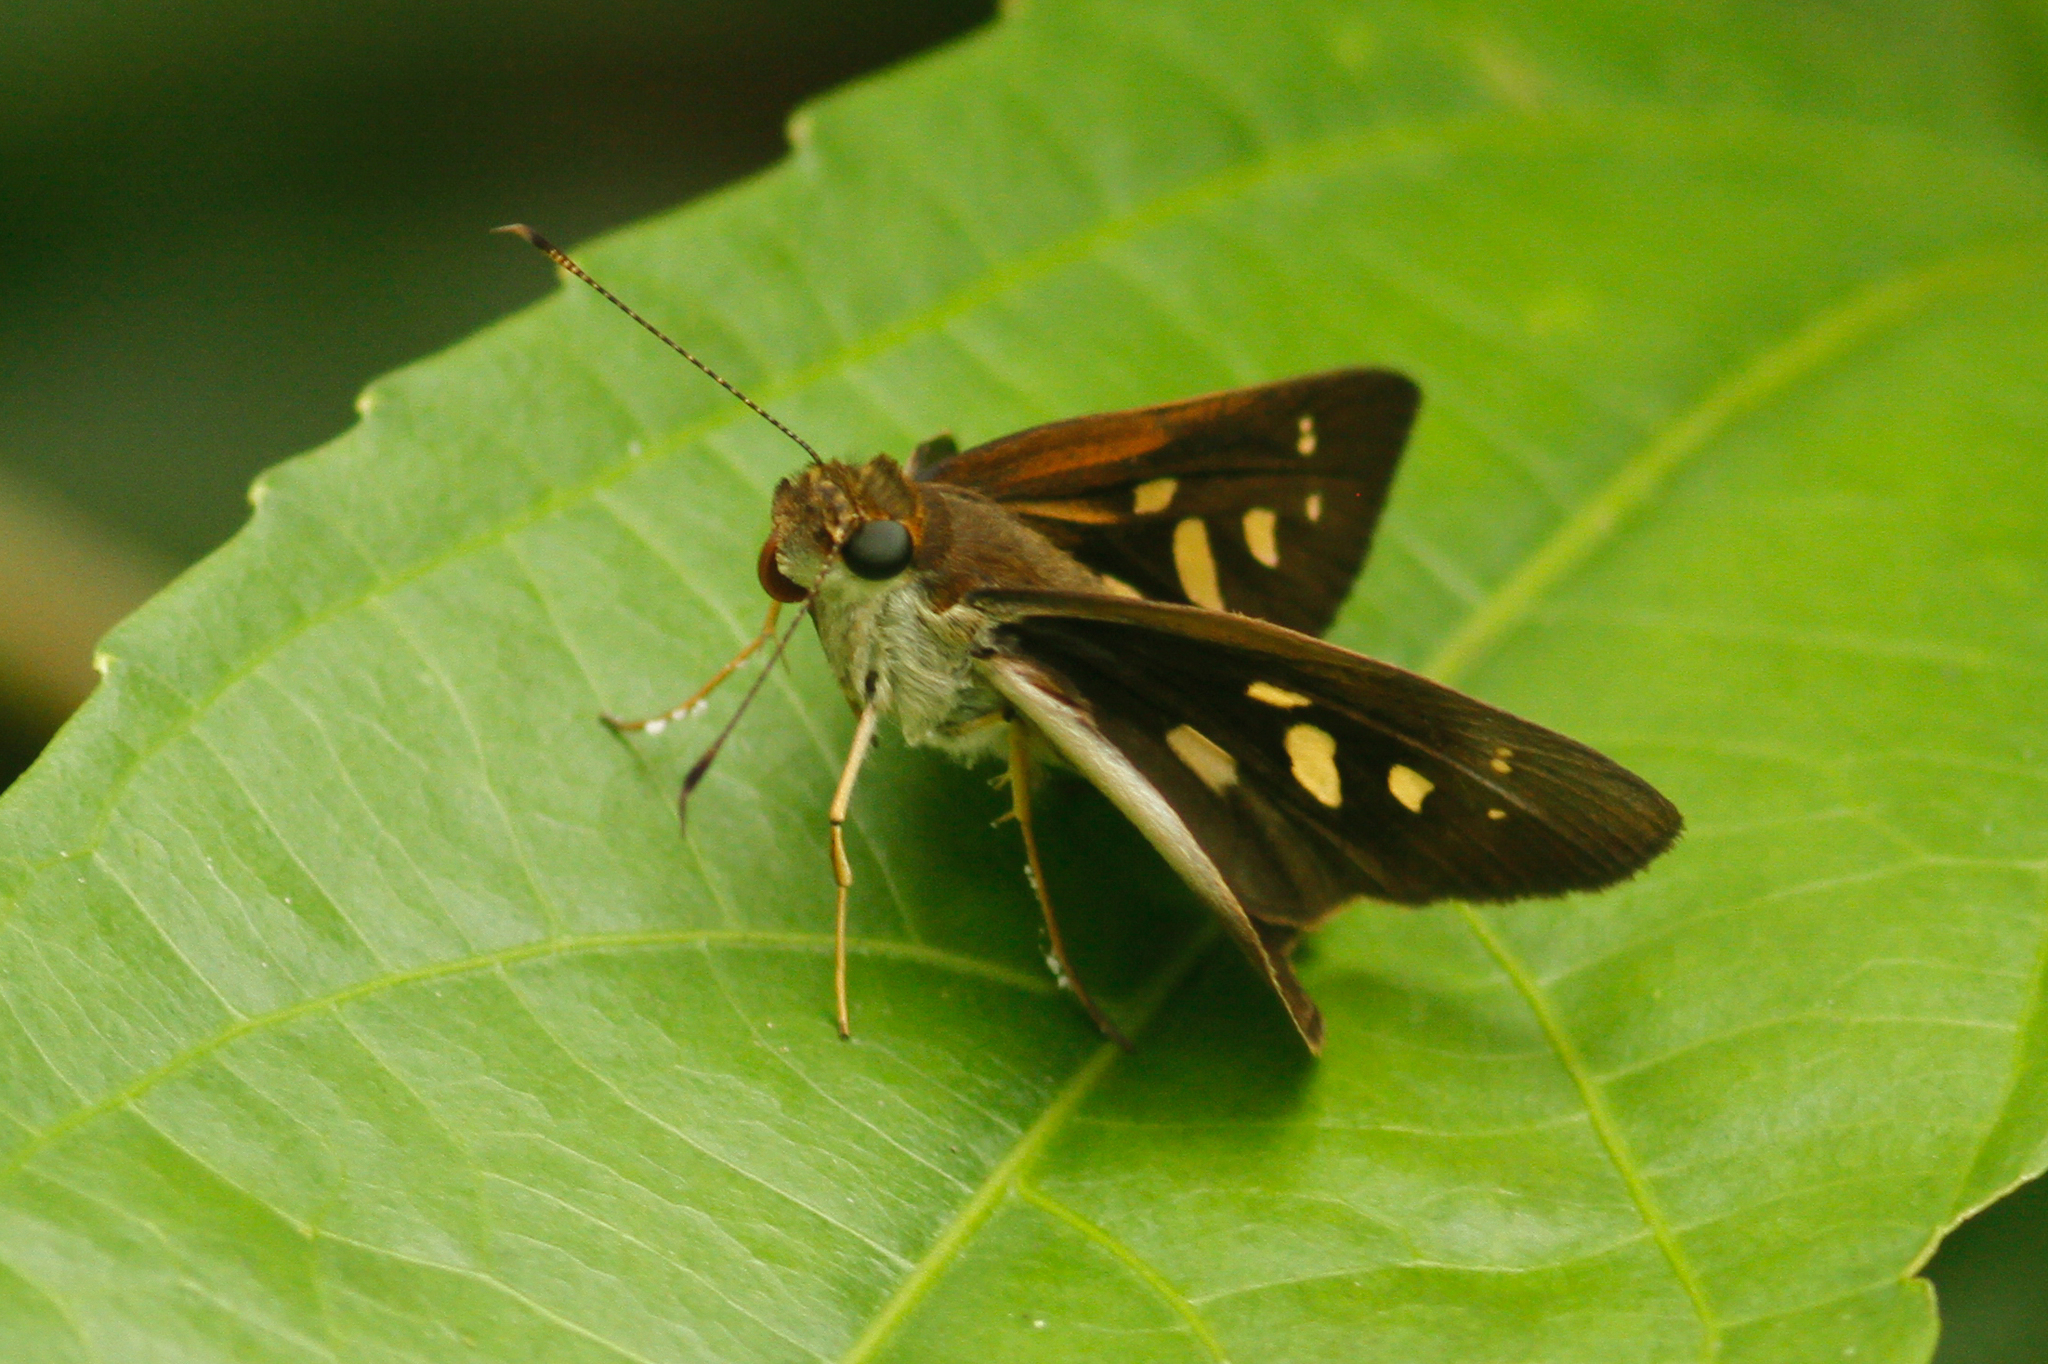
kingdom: Animalia
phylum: Arthropoda
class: Insecta
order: Lepidoptera
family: Hesperiidae
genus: Calpodes
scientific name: Calpodes ethlius
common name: Brazilian skipper
